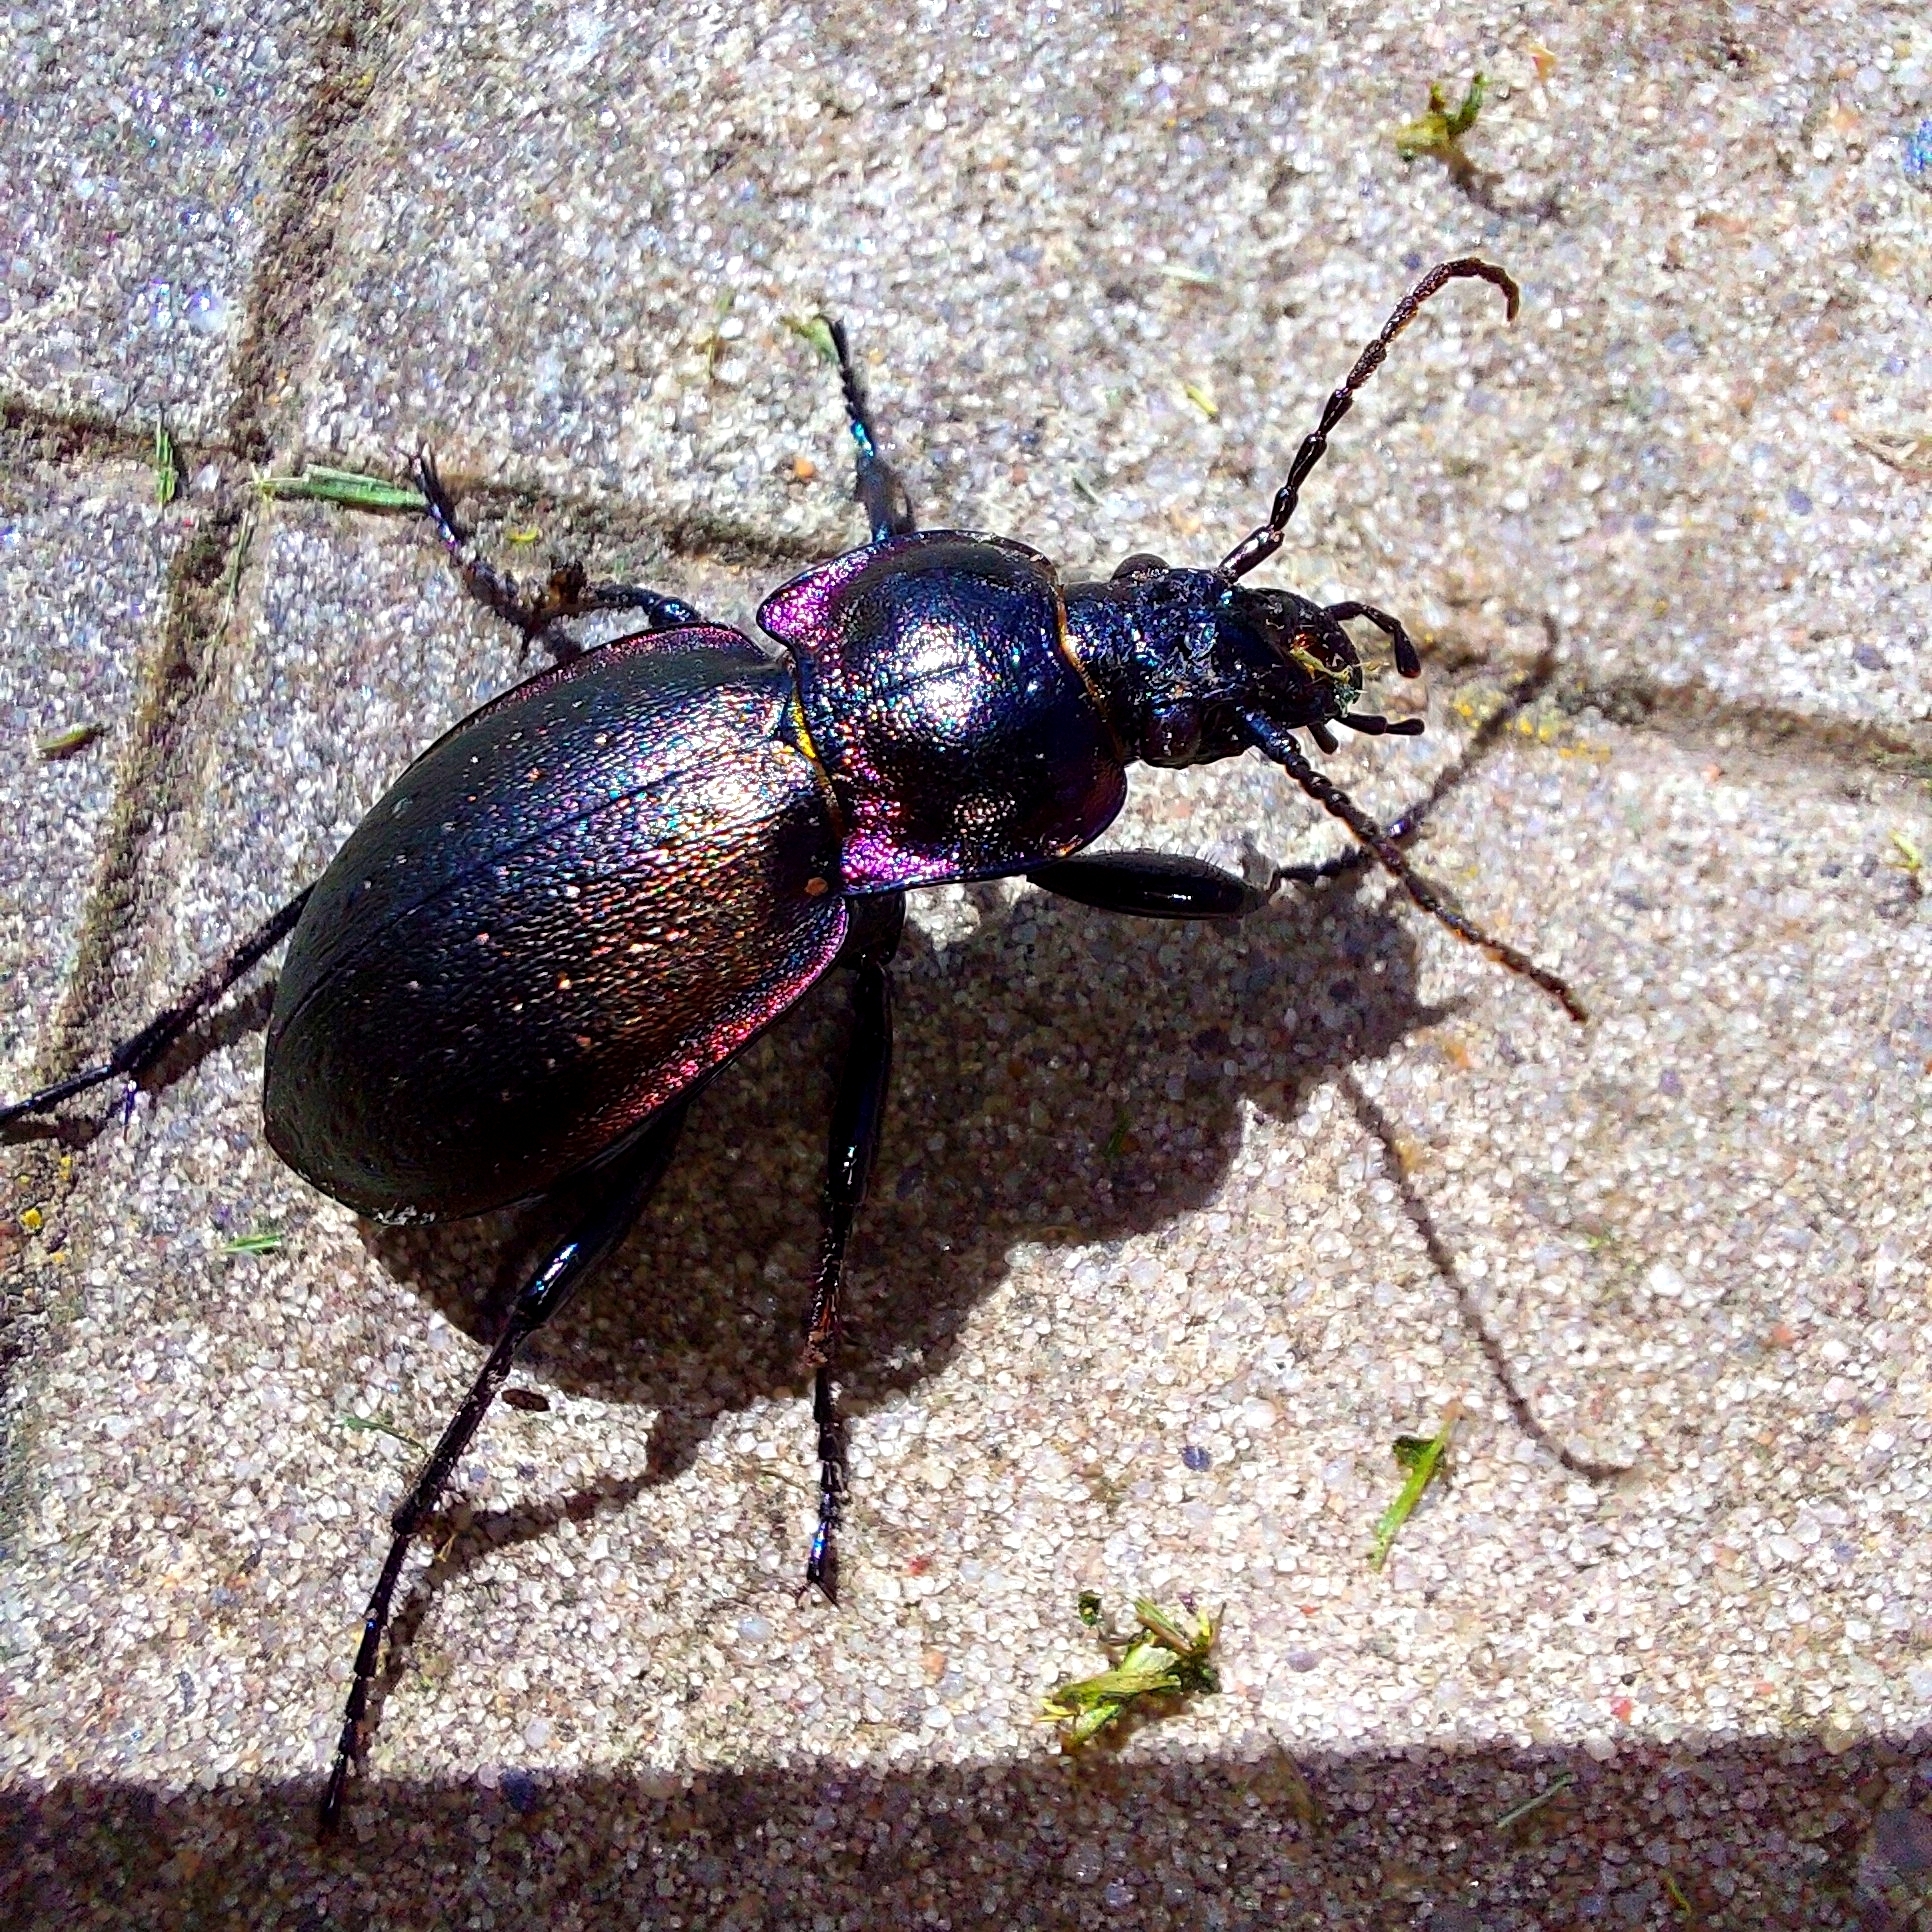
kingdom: Animalia
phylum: Arthropoda
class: Insecta
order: Coleoptera
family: Carabidae
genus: Carabus
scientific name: Carabus nemoralis
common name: European ground beetle
